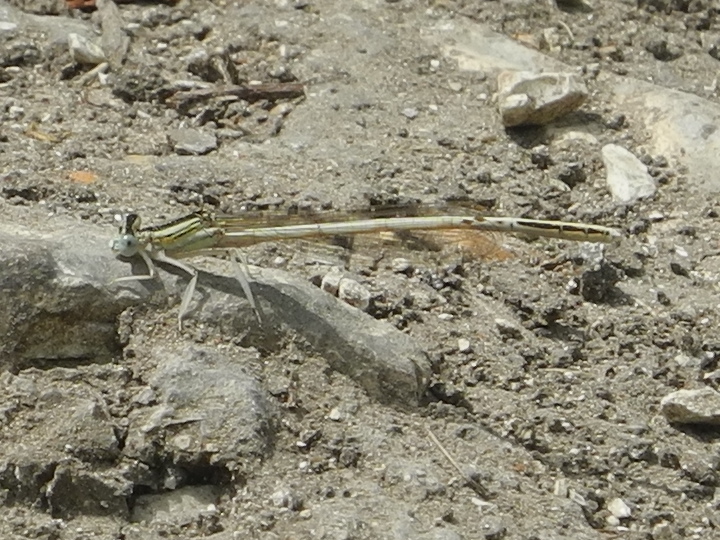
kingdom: Animalia
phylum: Arthropoda
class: Insecta
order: Odonata
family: Platycnemididae
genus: Platycnemis
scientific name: Platycnemis dealbata
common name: Ivory featherleg
